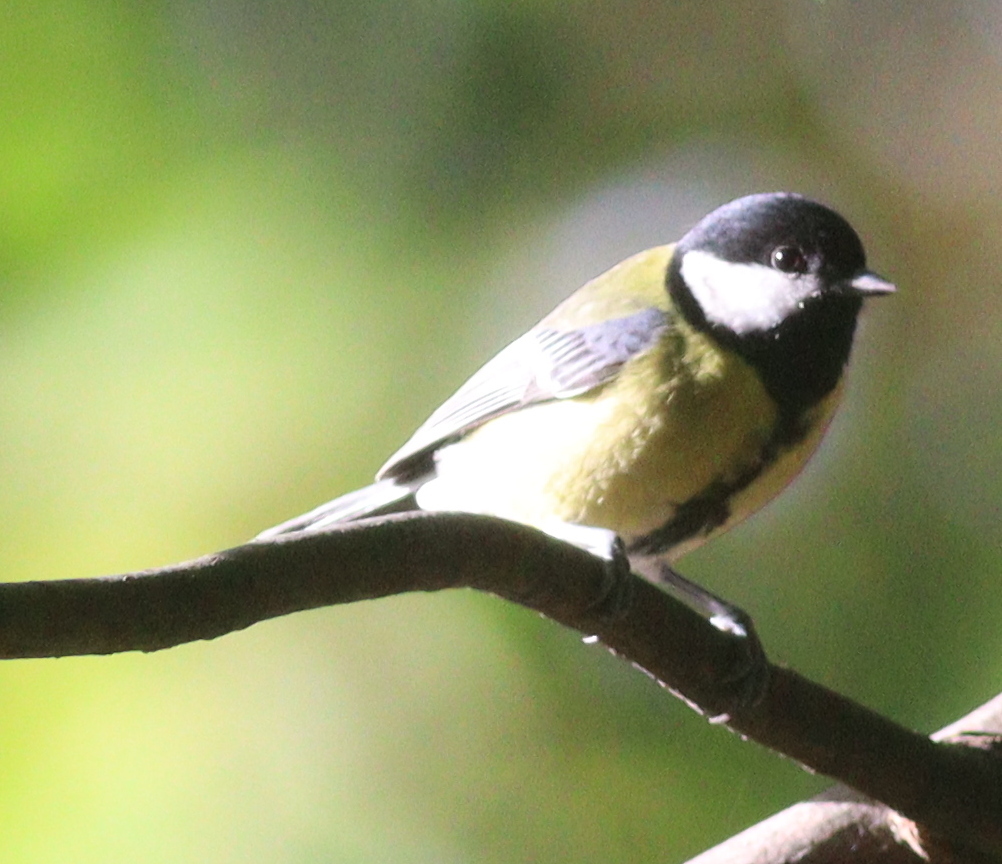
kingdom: Animalia
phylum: Chordata
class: Aves
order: Passeriformes
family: Paridae
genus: Parus
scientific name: Parus major
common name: Great tit
